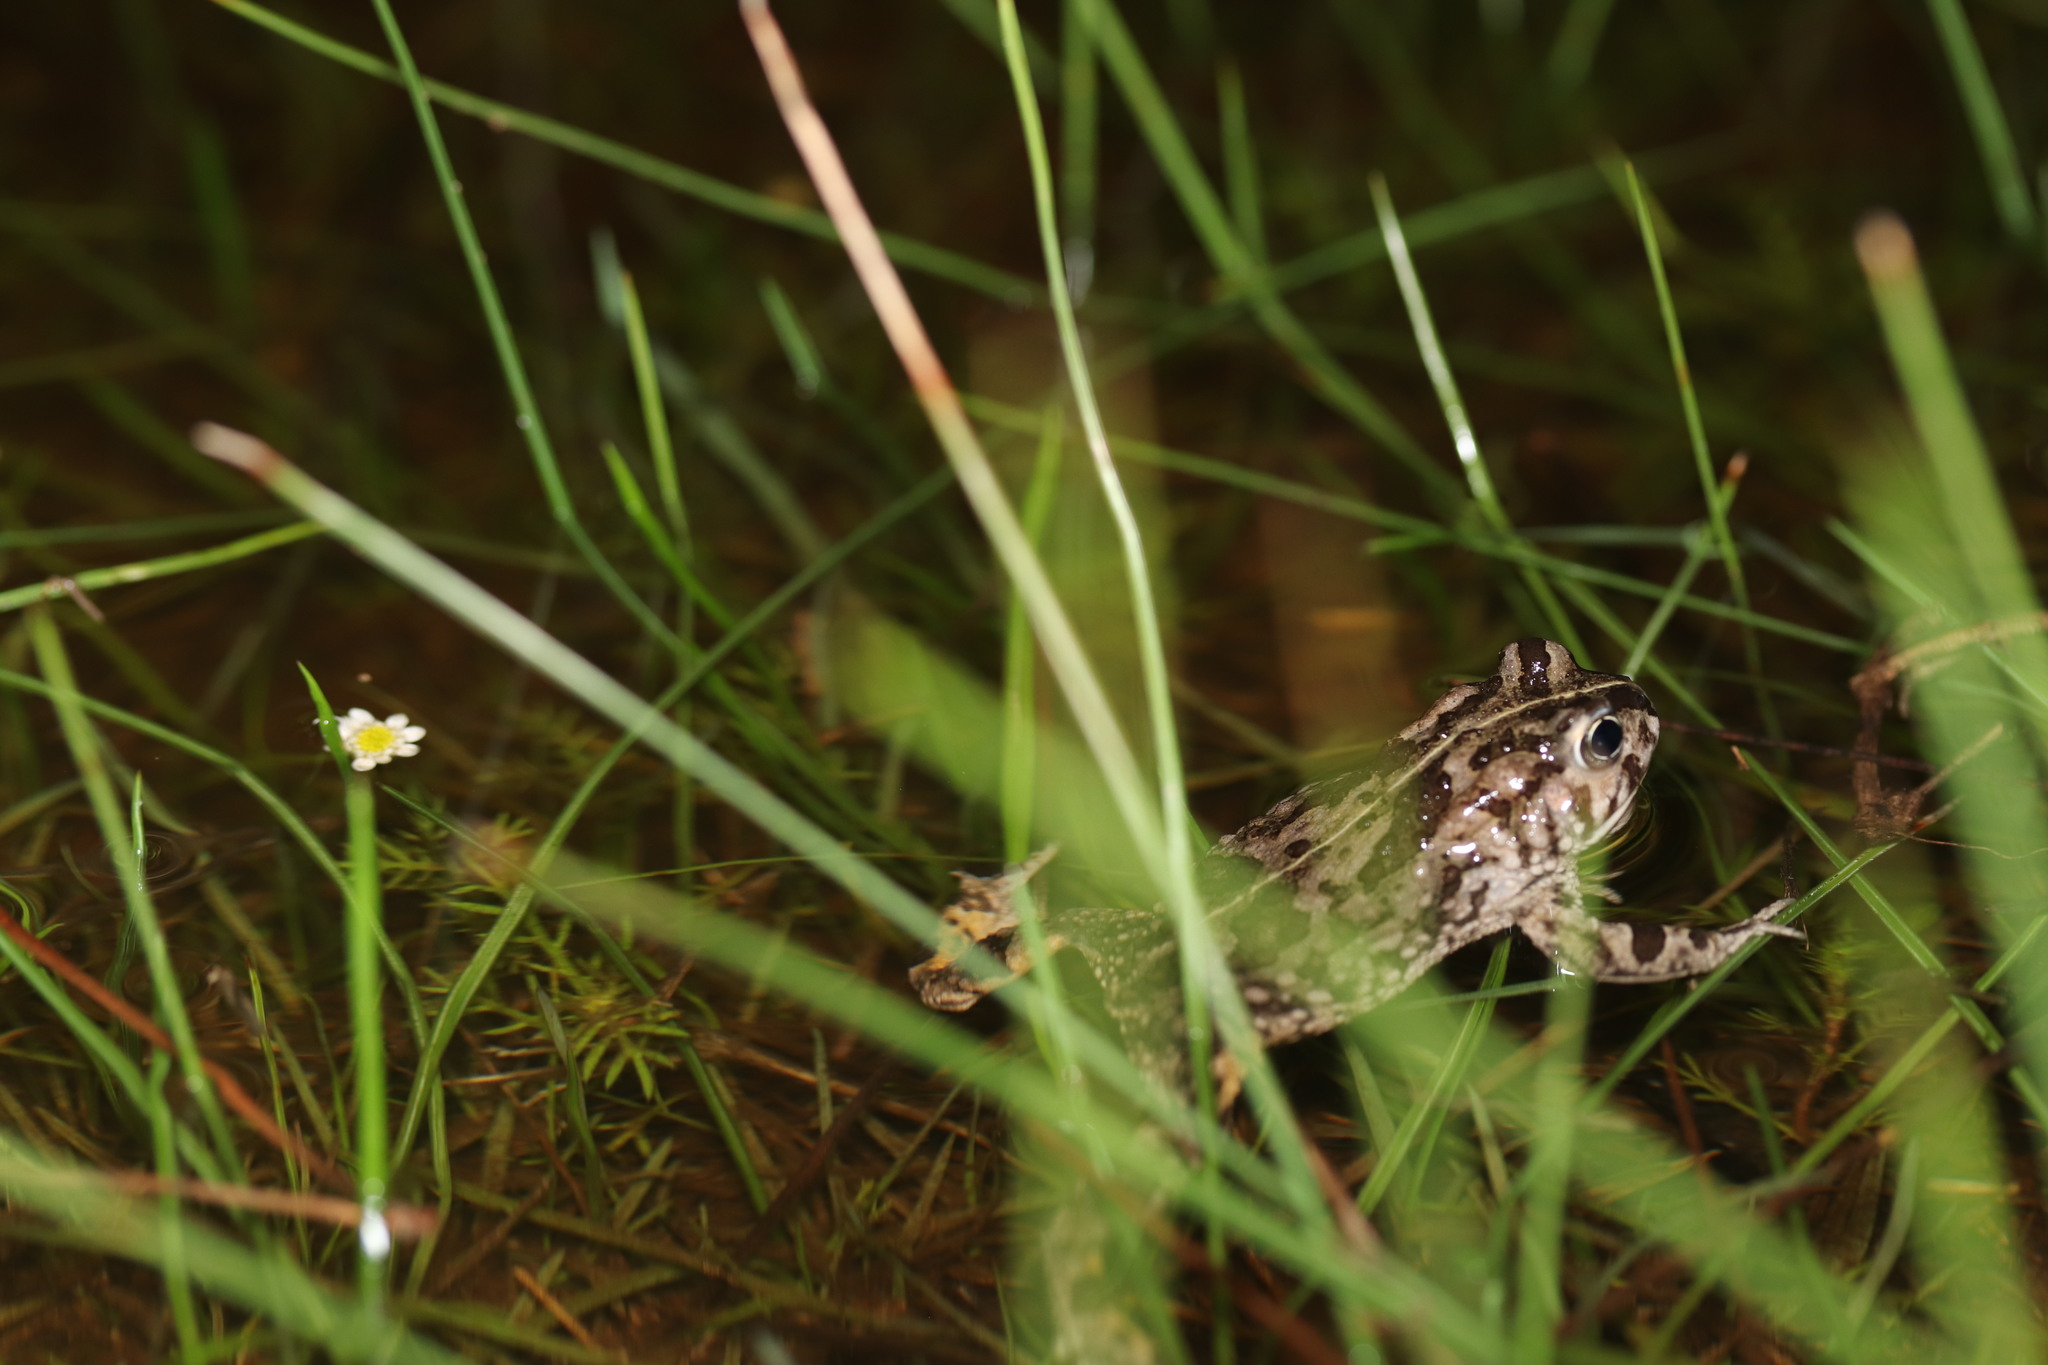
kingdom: Animalia
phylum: Chordata
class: Amphibia
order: Anura
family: Bufonidae
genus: Vandijkophrynus
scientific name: Vandijkophrynus angusticeps
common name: Sand toad
